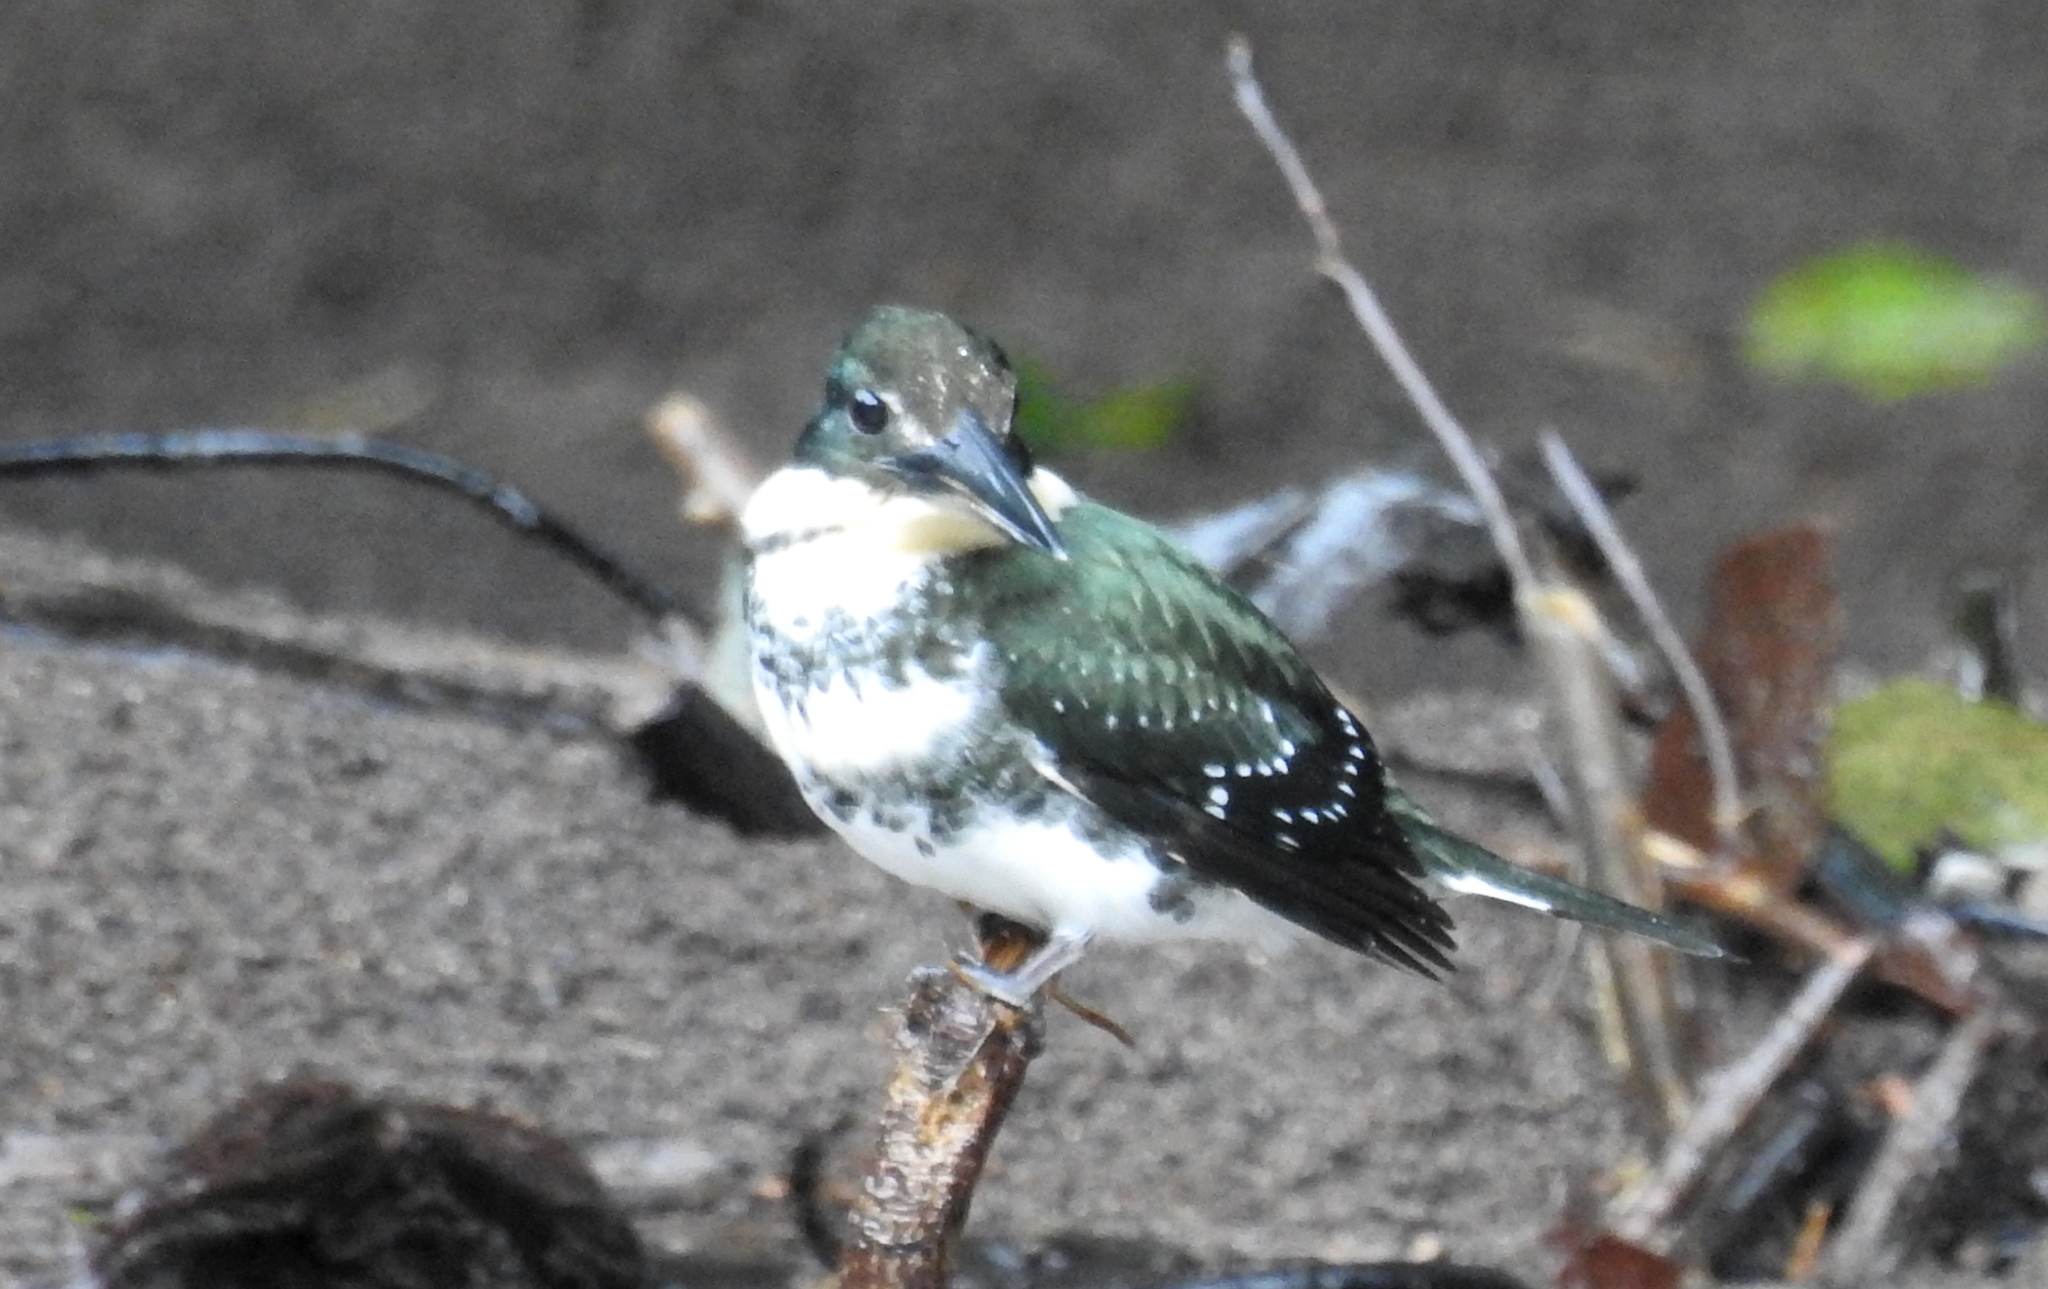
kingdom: Animalia
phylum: Chordata
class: Aves
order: Coraciiformes
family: Alcedinidae
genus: Chloroceryle
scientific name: Chloroceryle americana
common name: Green kingfisher
